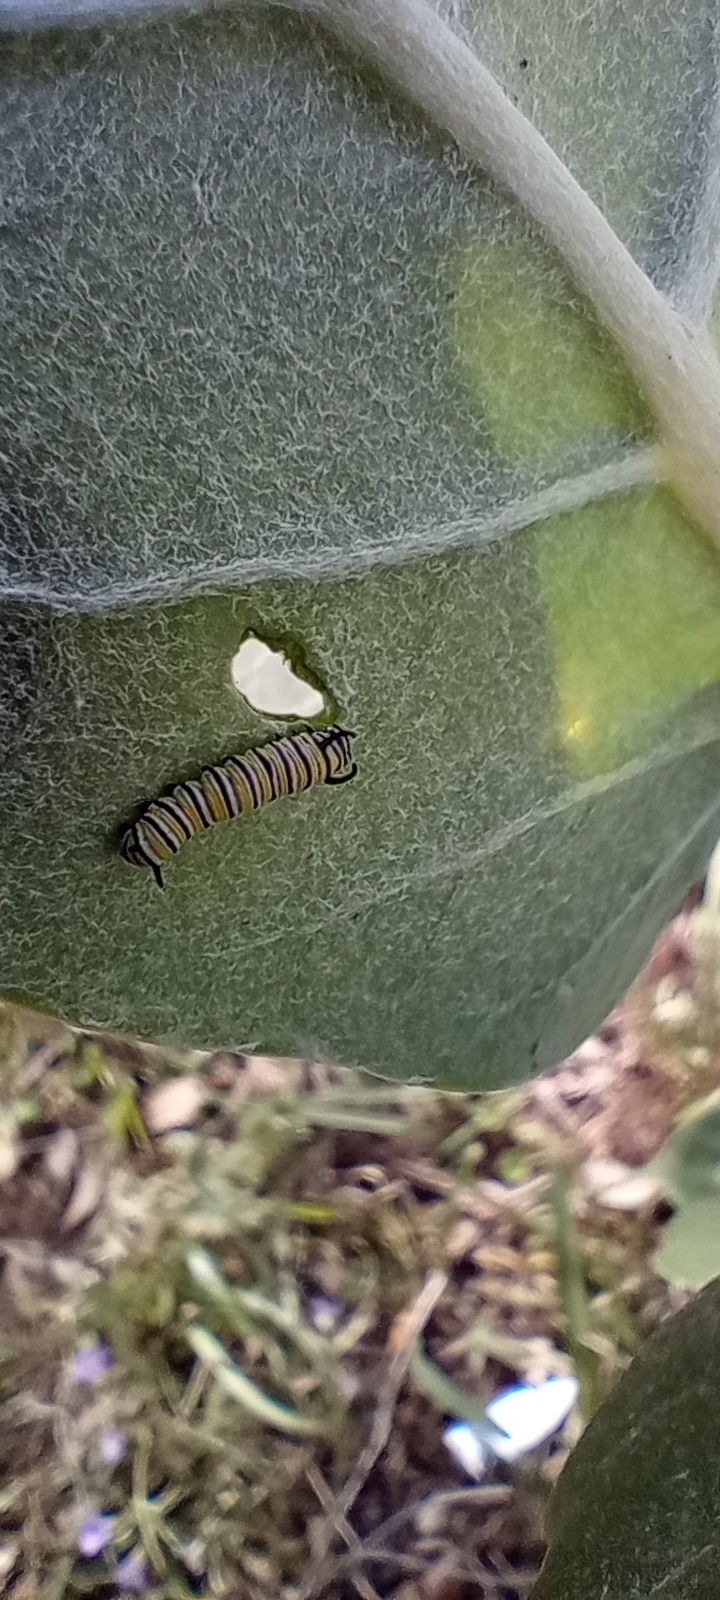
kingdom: Animalia
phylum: Arthropoda
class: Insecta
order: Lepidoptera
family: Nymphalidae
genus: Danaus
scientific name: Danaus plexippus
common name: Monarch
